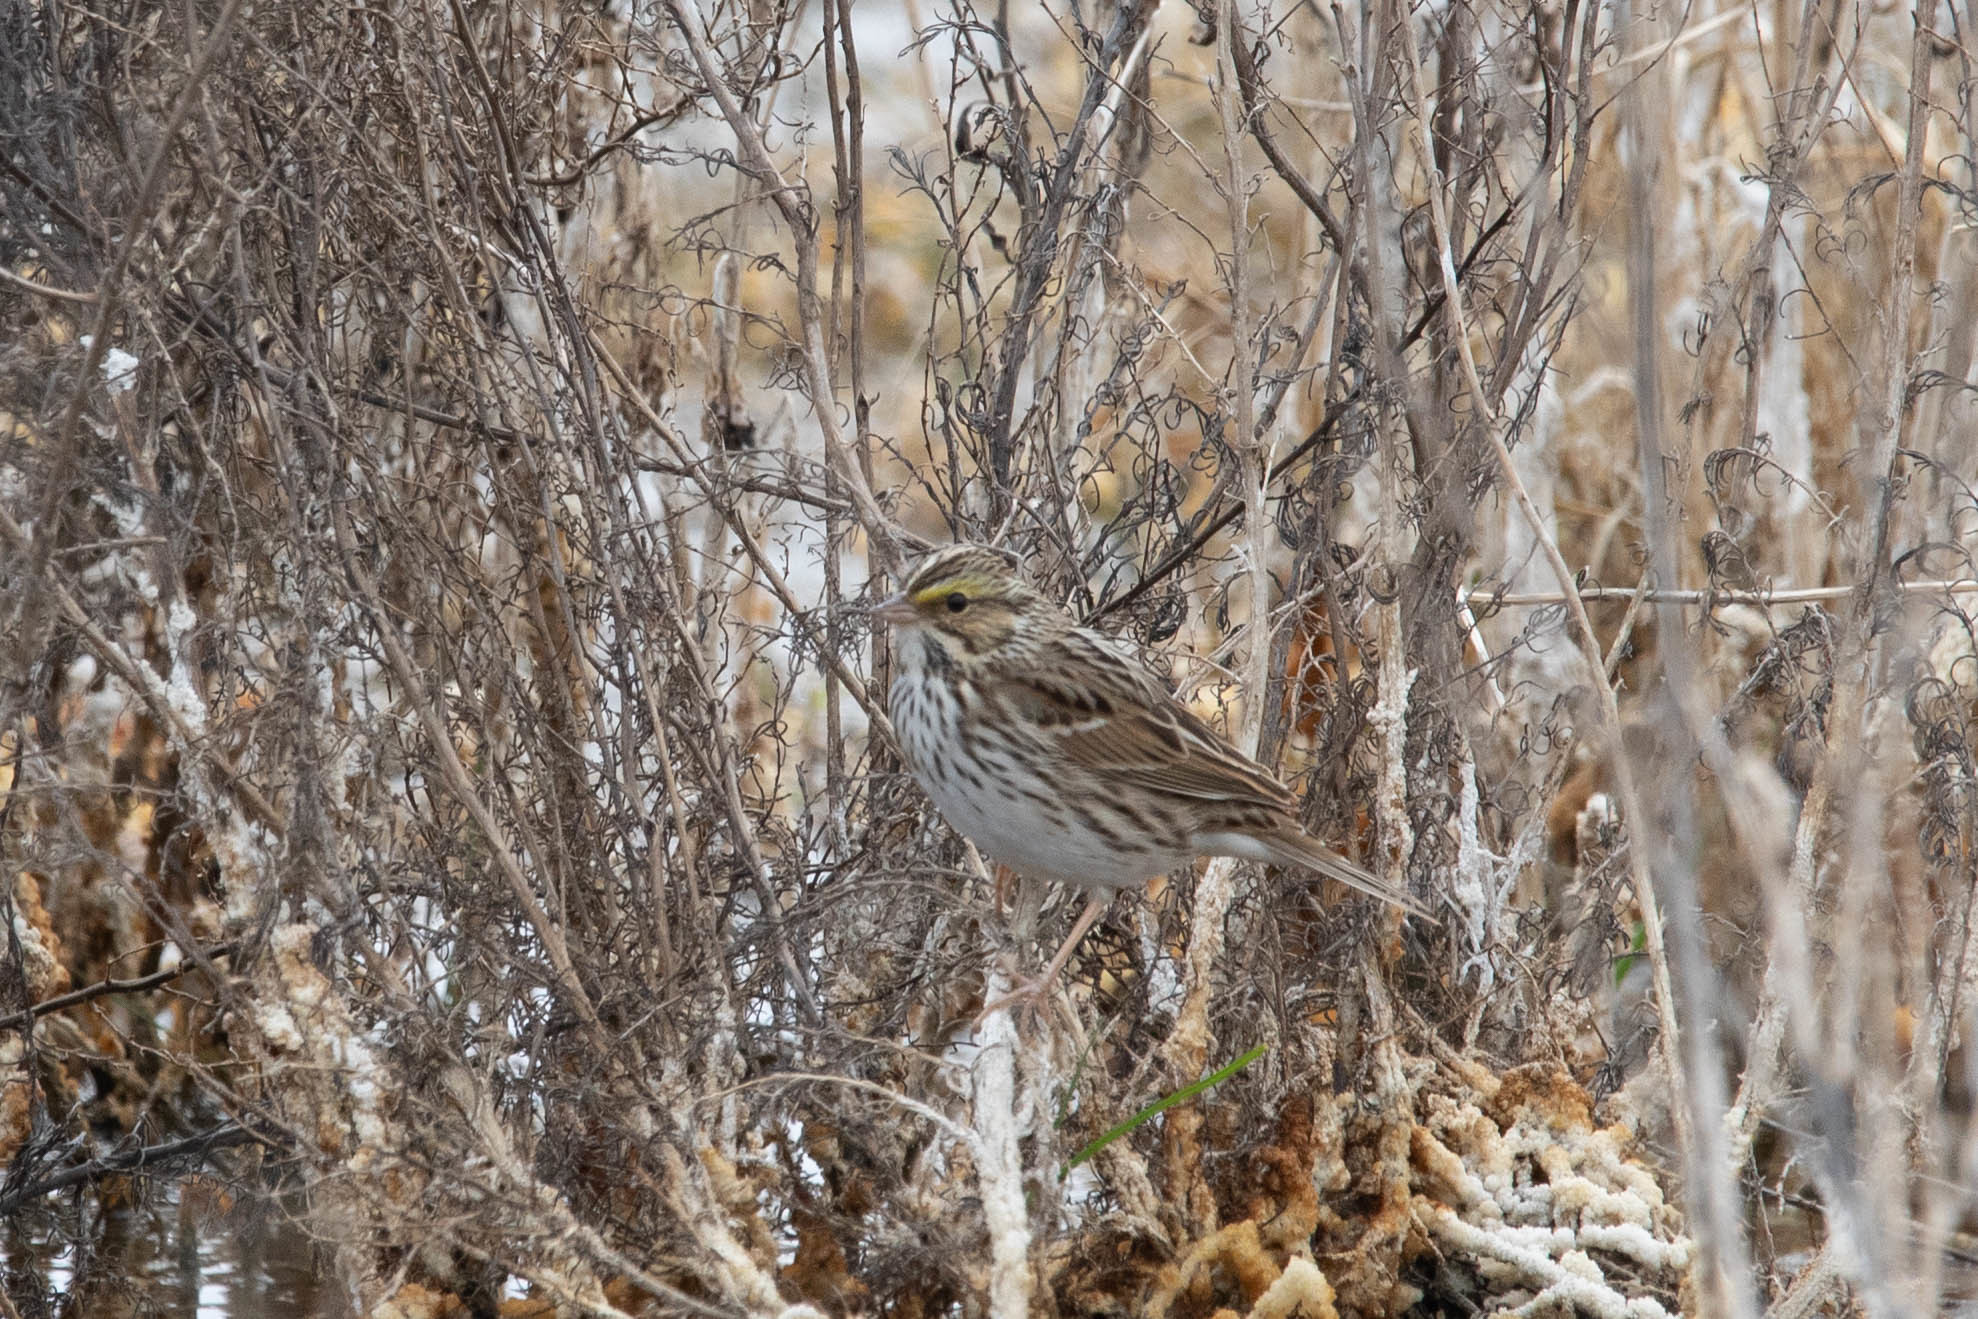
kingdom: Animalia
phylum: Chordata
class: Aves
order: Passeriformes
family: Passerellidae
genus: Passerculus
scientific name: Passerculus sandwichensis
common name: Savannah sparrow
